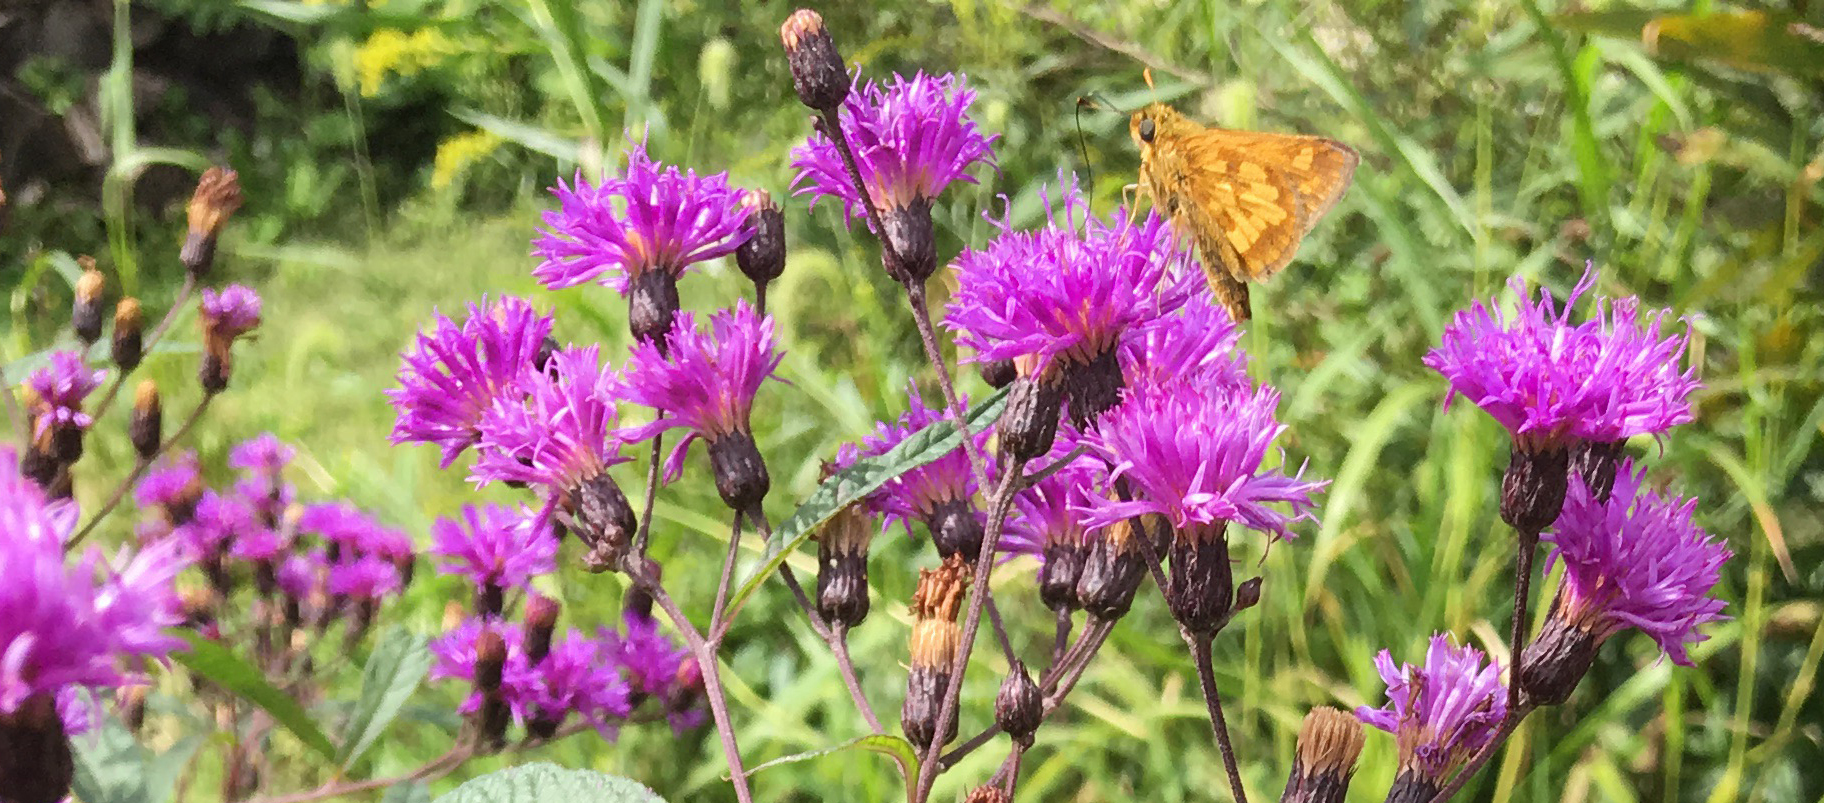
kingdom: Animalia
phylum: Arthropoda
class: Insecta
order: Lepidoptera
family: Hesperiidae
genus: Polites
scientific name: Polites coras
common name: Peck's skipper
